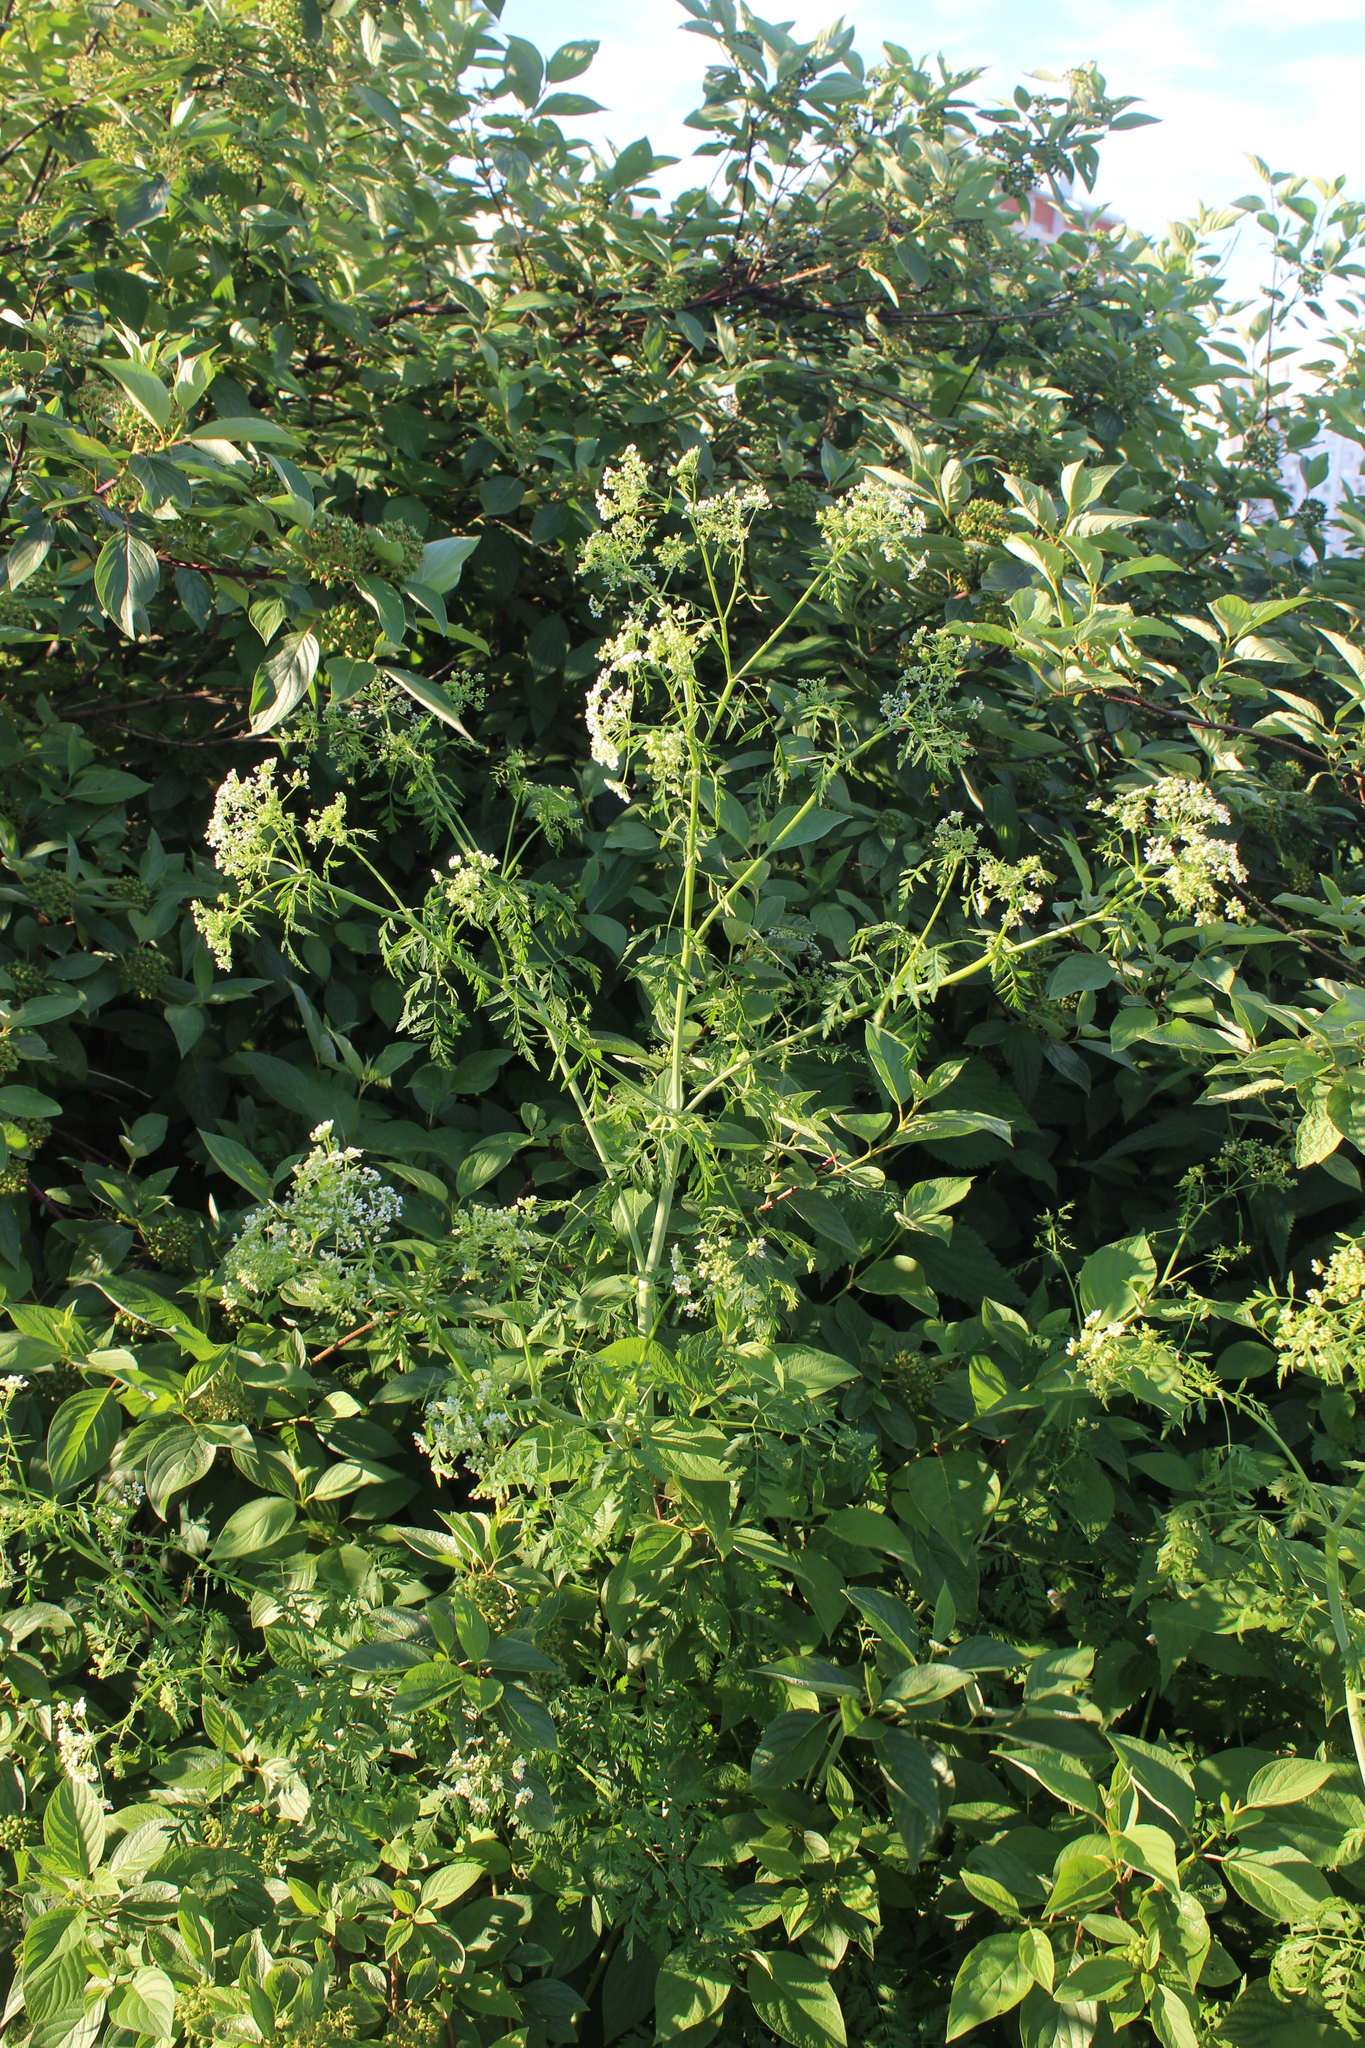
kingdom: Plantae
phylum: Tracheophyta
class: Magnoliopsida
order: Apiales
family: Apiaceae
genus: Conium
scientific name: Conium maculatum
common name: Hemlock
